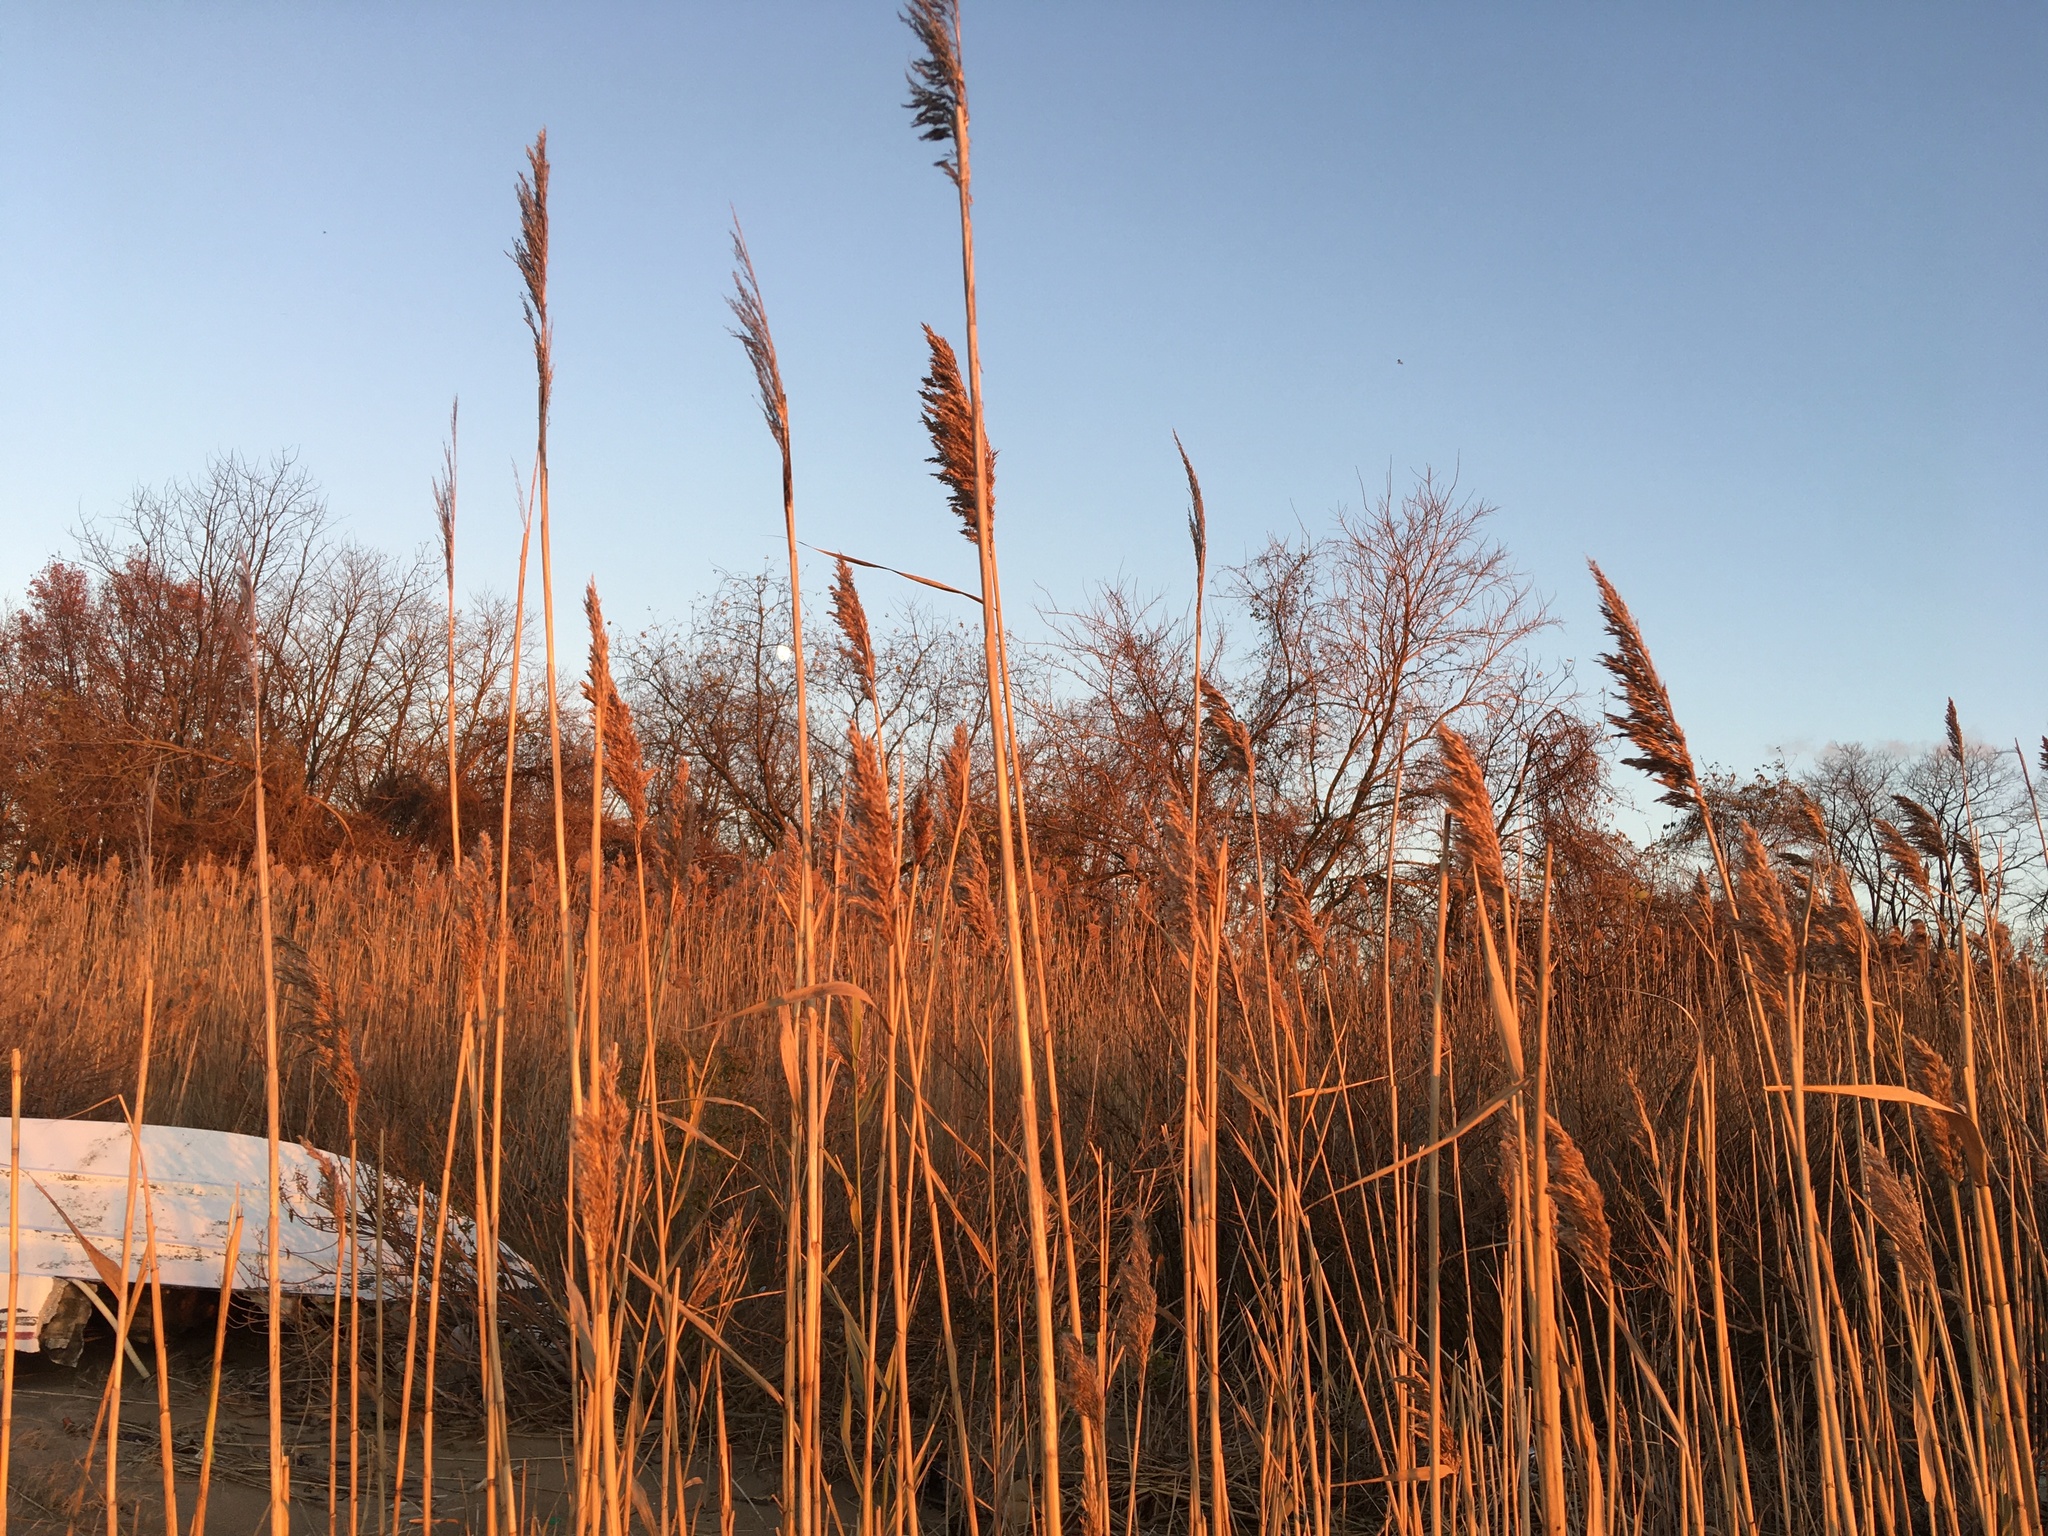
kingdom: Plantae
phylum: Tracheophyta
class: Liliopsida
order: Poales
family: Poaceae
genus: Phragmites
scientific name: Phragmites australis
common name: Common reed
